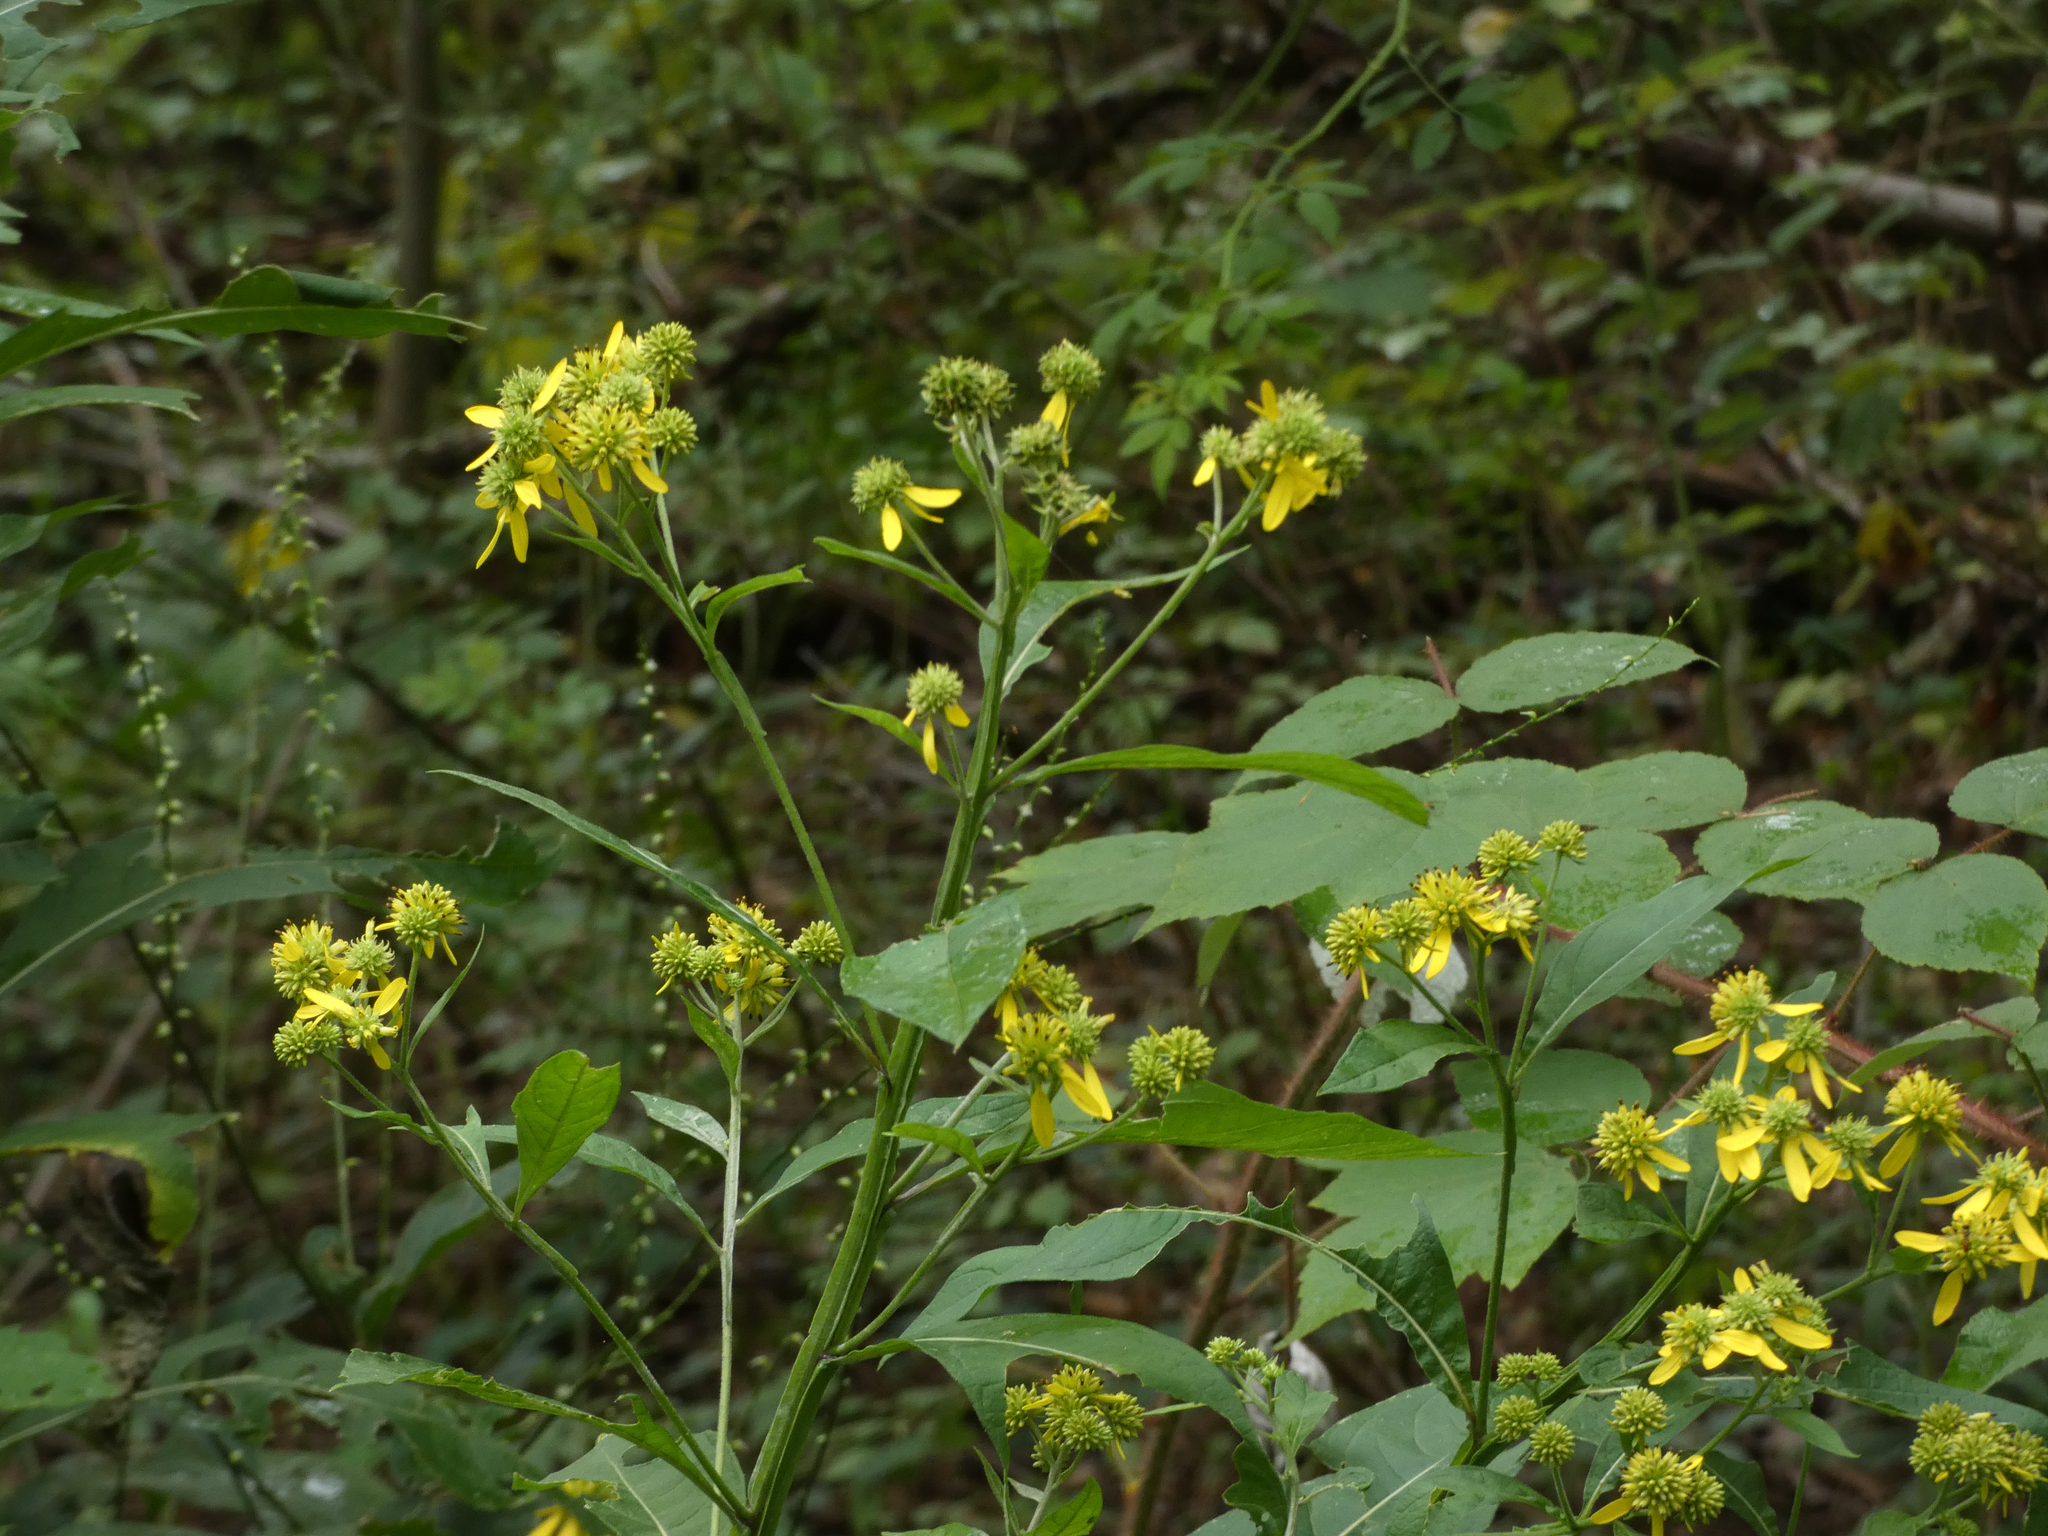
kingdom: Plantae
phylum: Tracheophyta
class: Magnoliopsida
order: Asterales
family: Asteraceae
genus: Verbesina
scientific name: Verbesina alternifolia
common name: Wingstem
